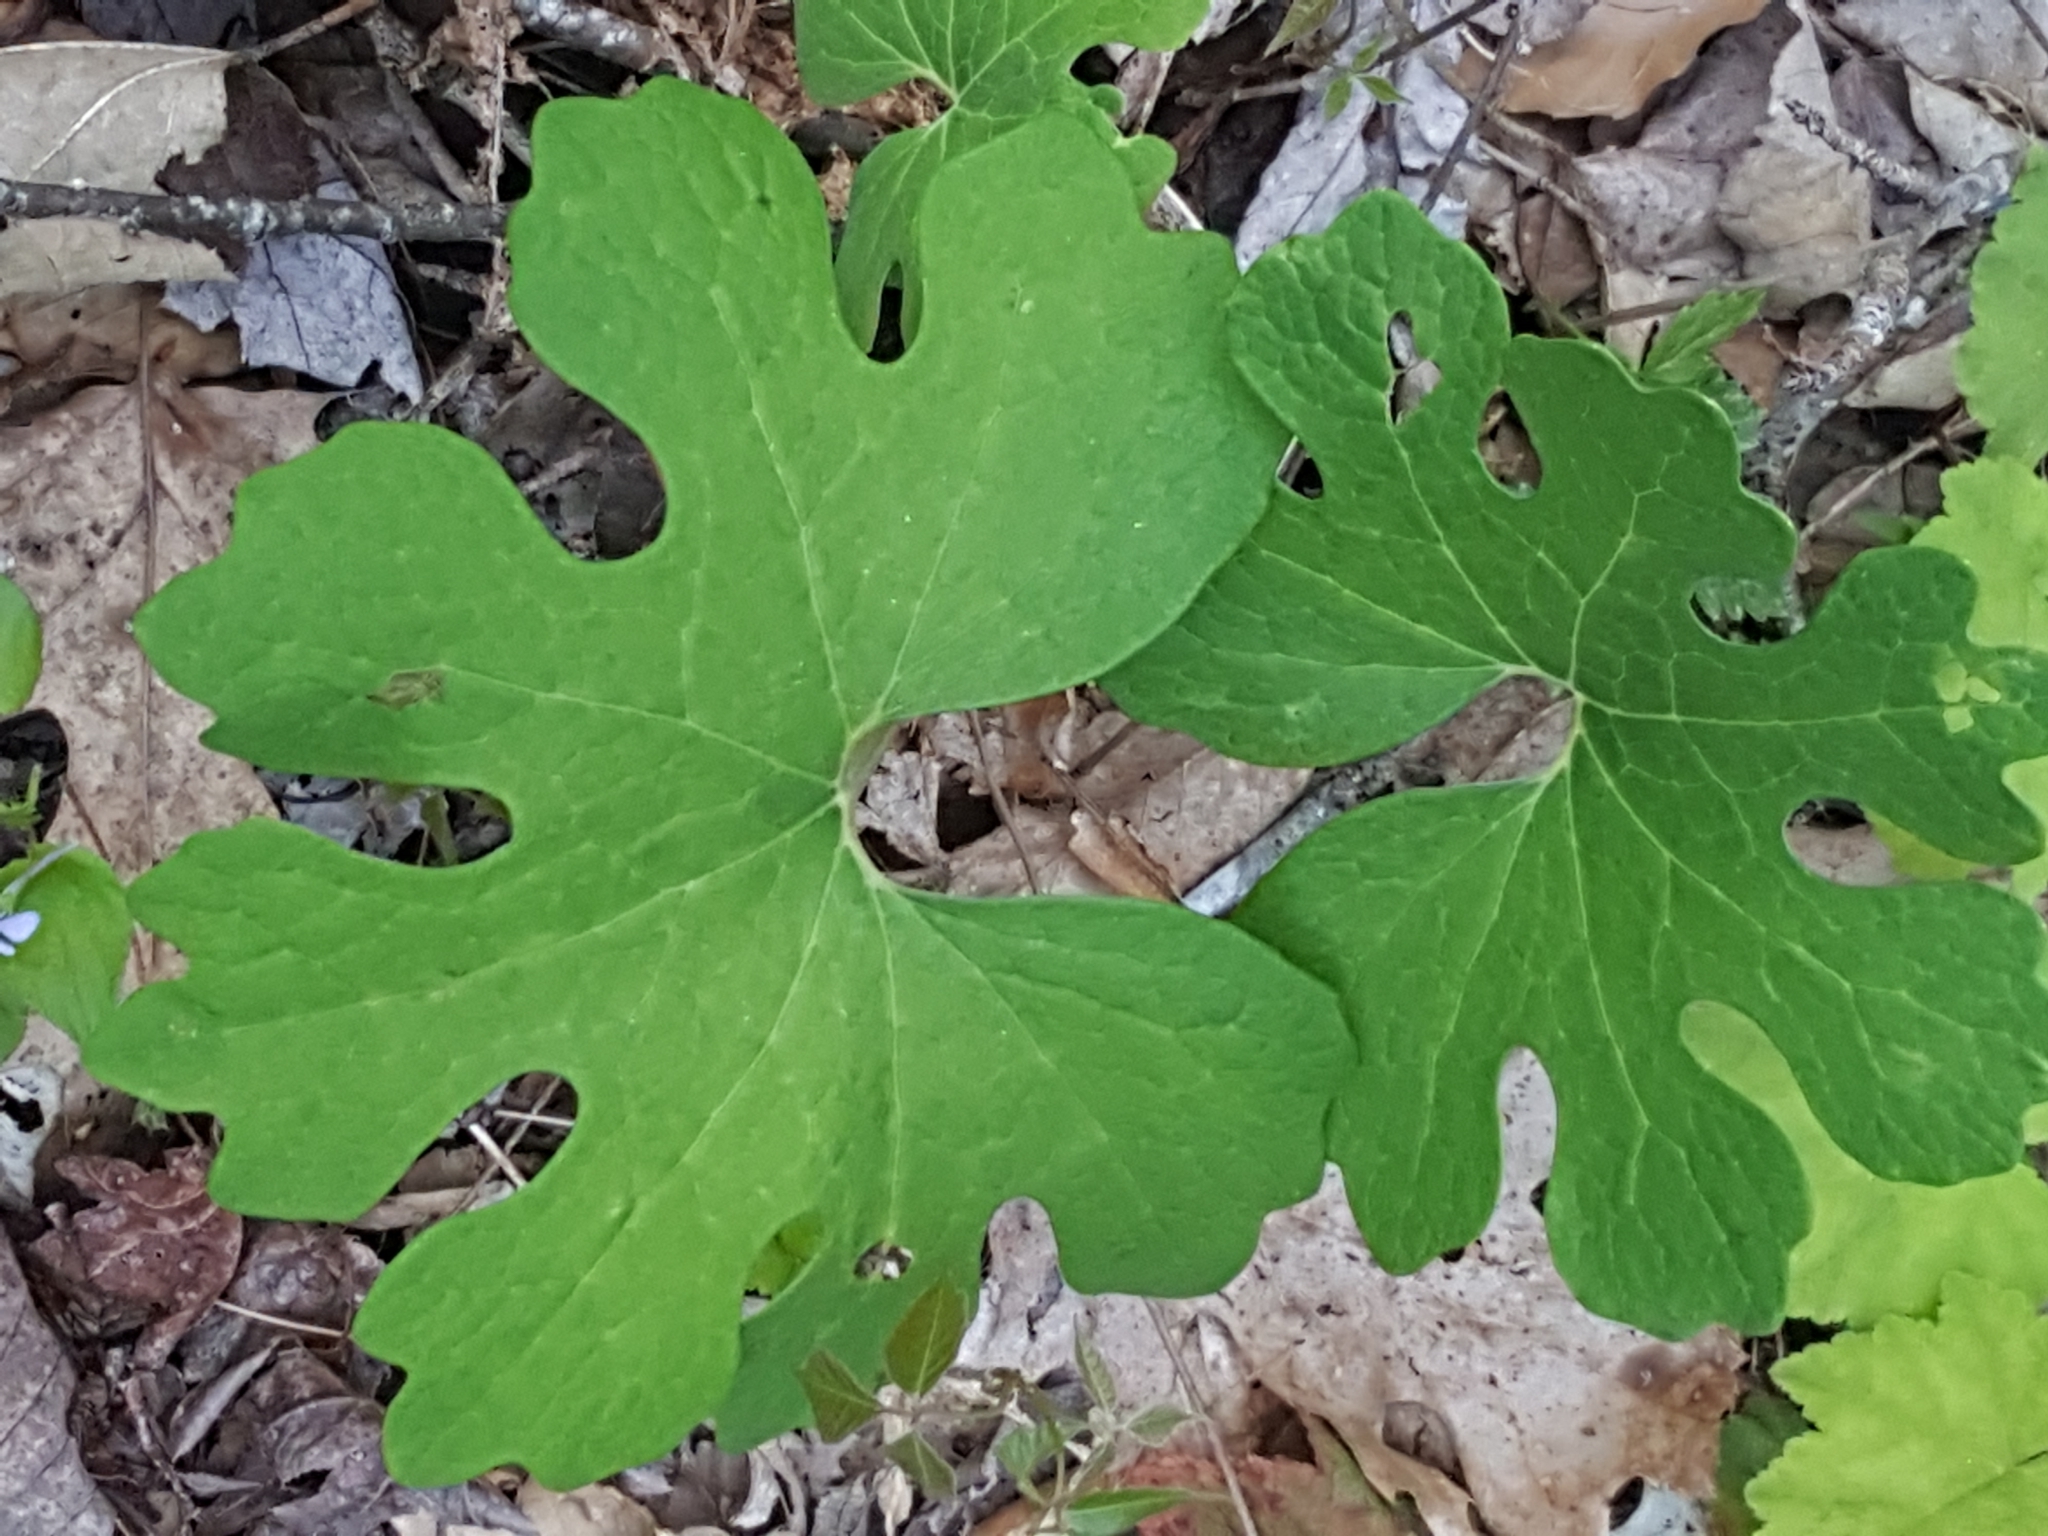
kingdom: Plantae
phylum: Tracheophyta
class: Magnoliopsida
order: Ranunculales
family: Papaveraceae
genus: Sanguinaria
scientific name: Sanguinaria canadensis
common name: Bloodroot
